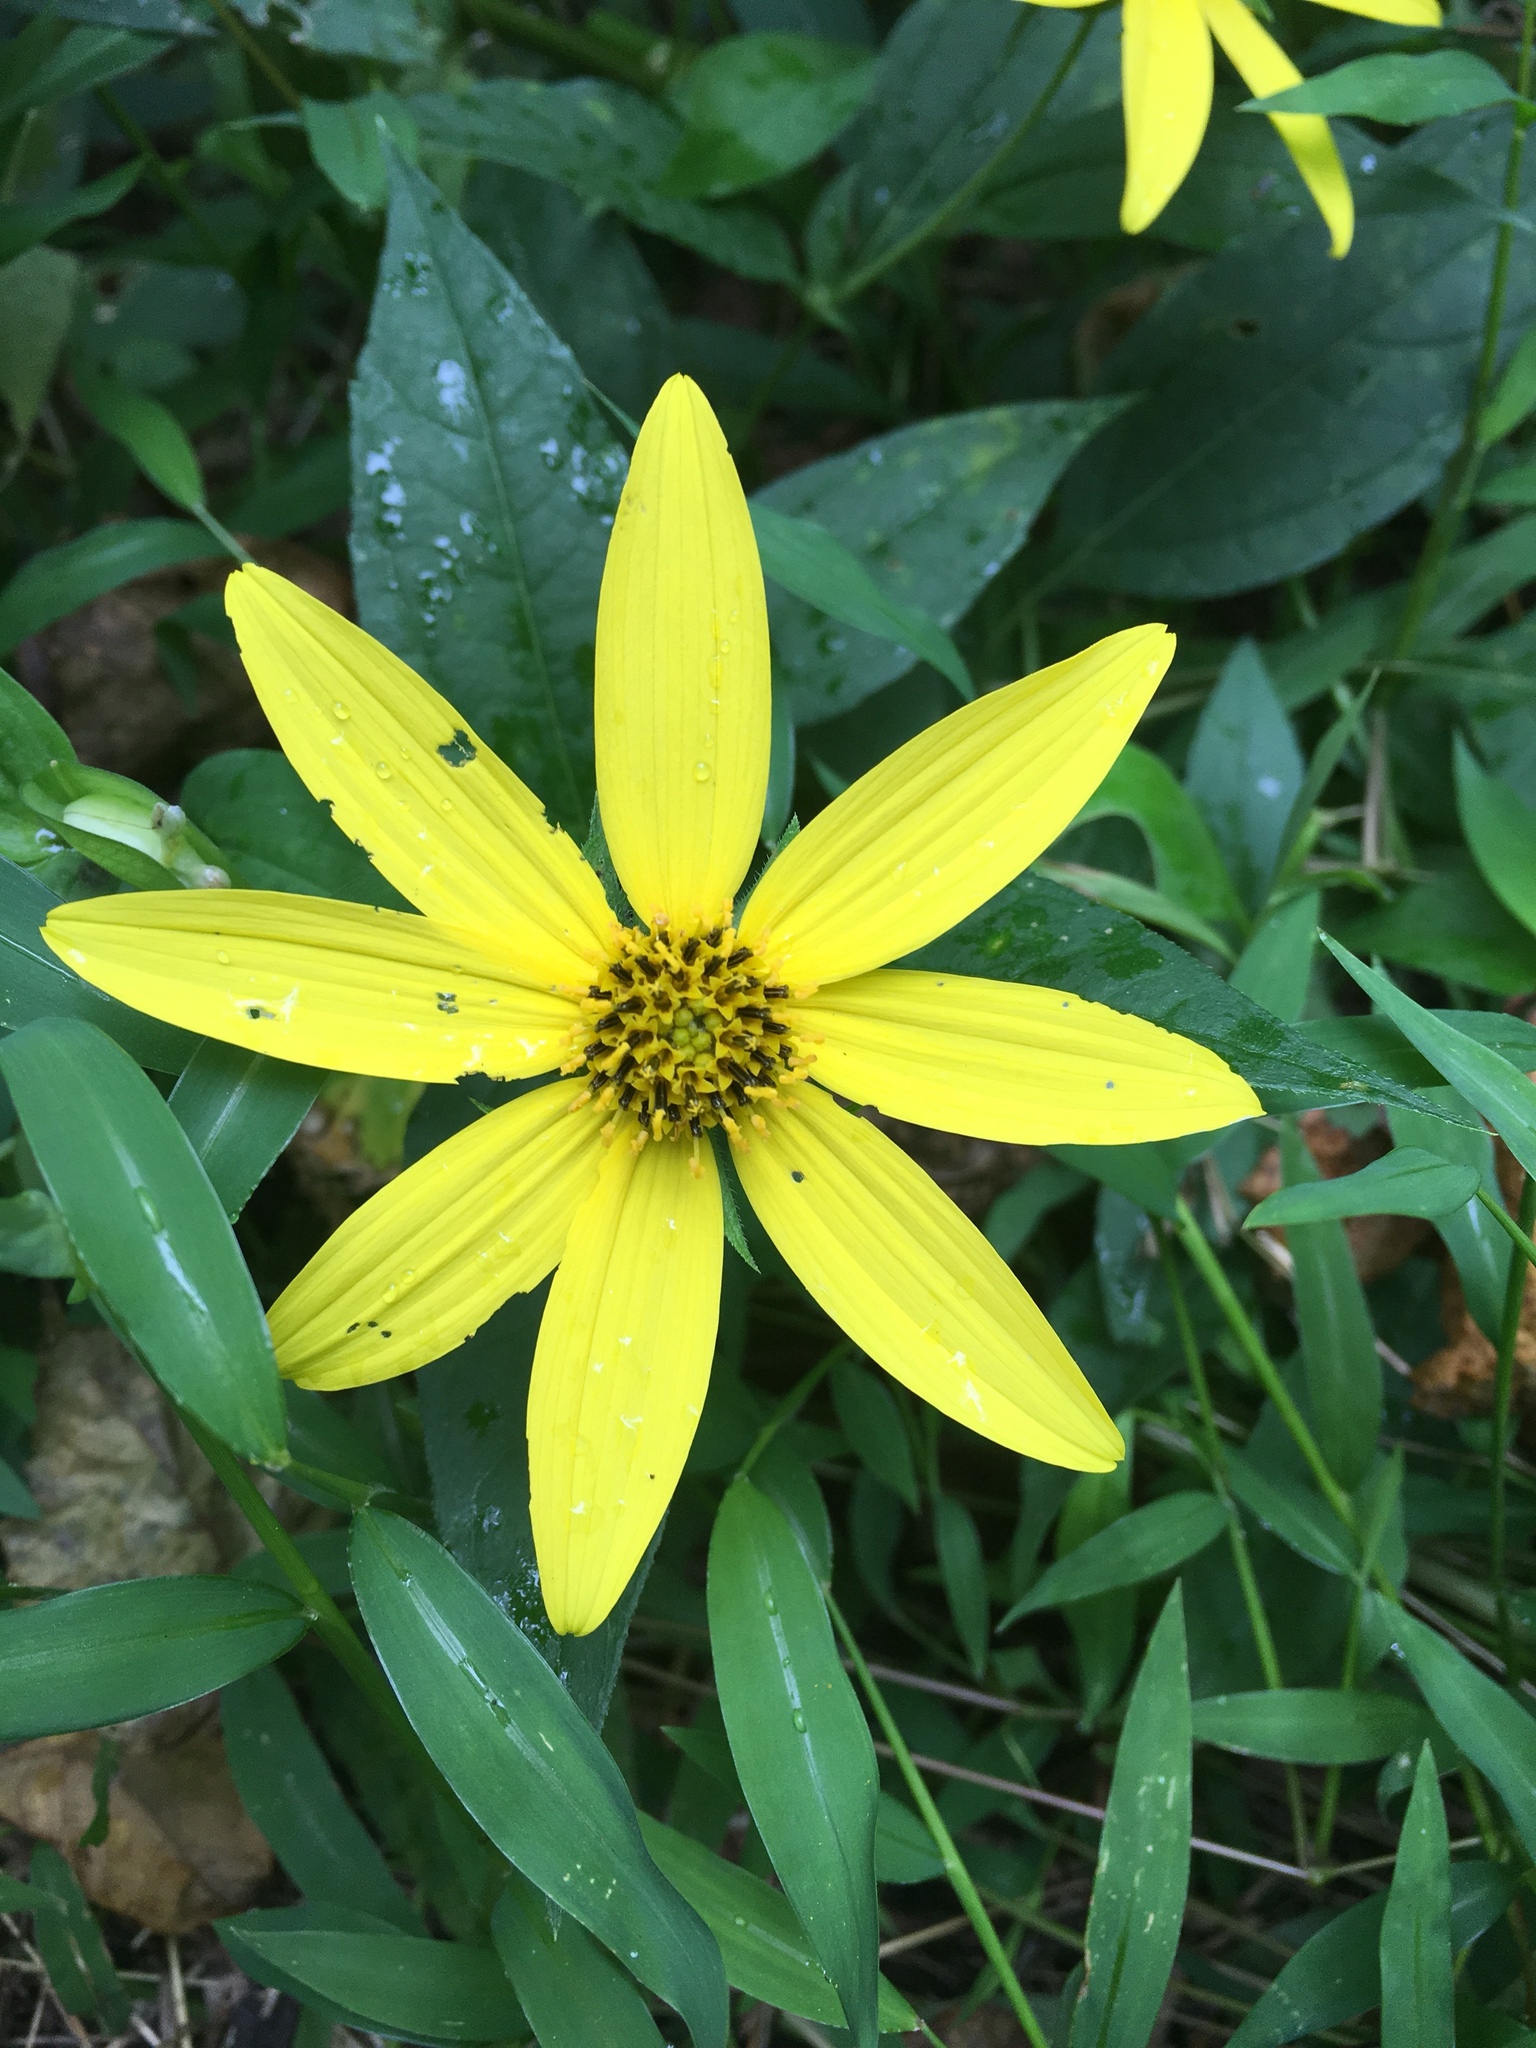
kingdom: Plantae
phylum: Tracheophyta
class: Magnoliopsida
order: Asterales
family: Asteraceae
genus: Helianthus
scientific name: Helianthus tuberosus
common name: Jerusalem artichoke
